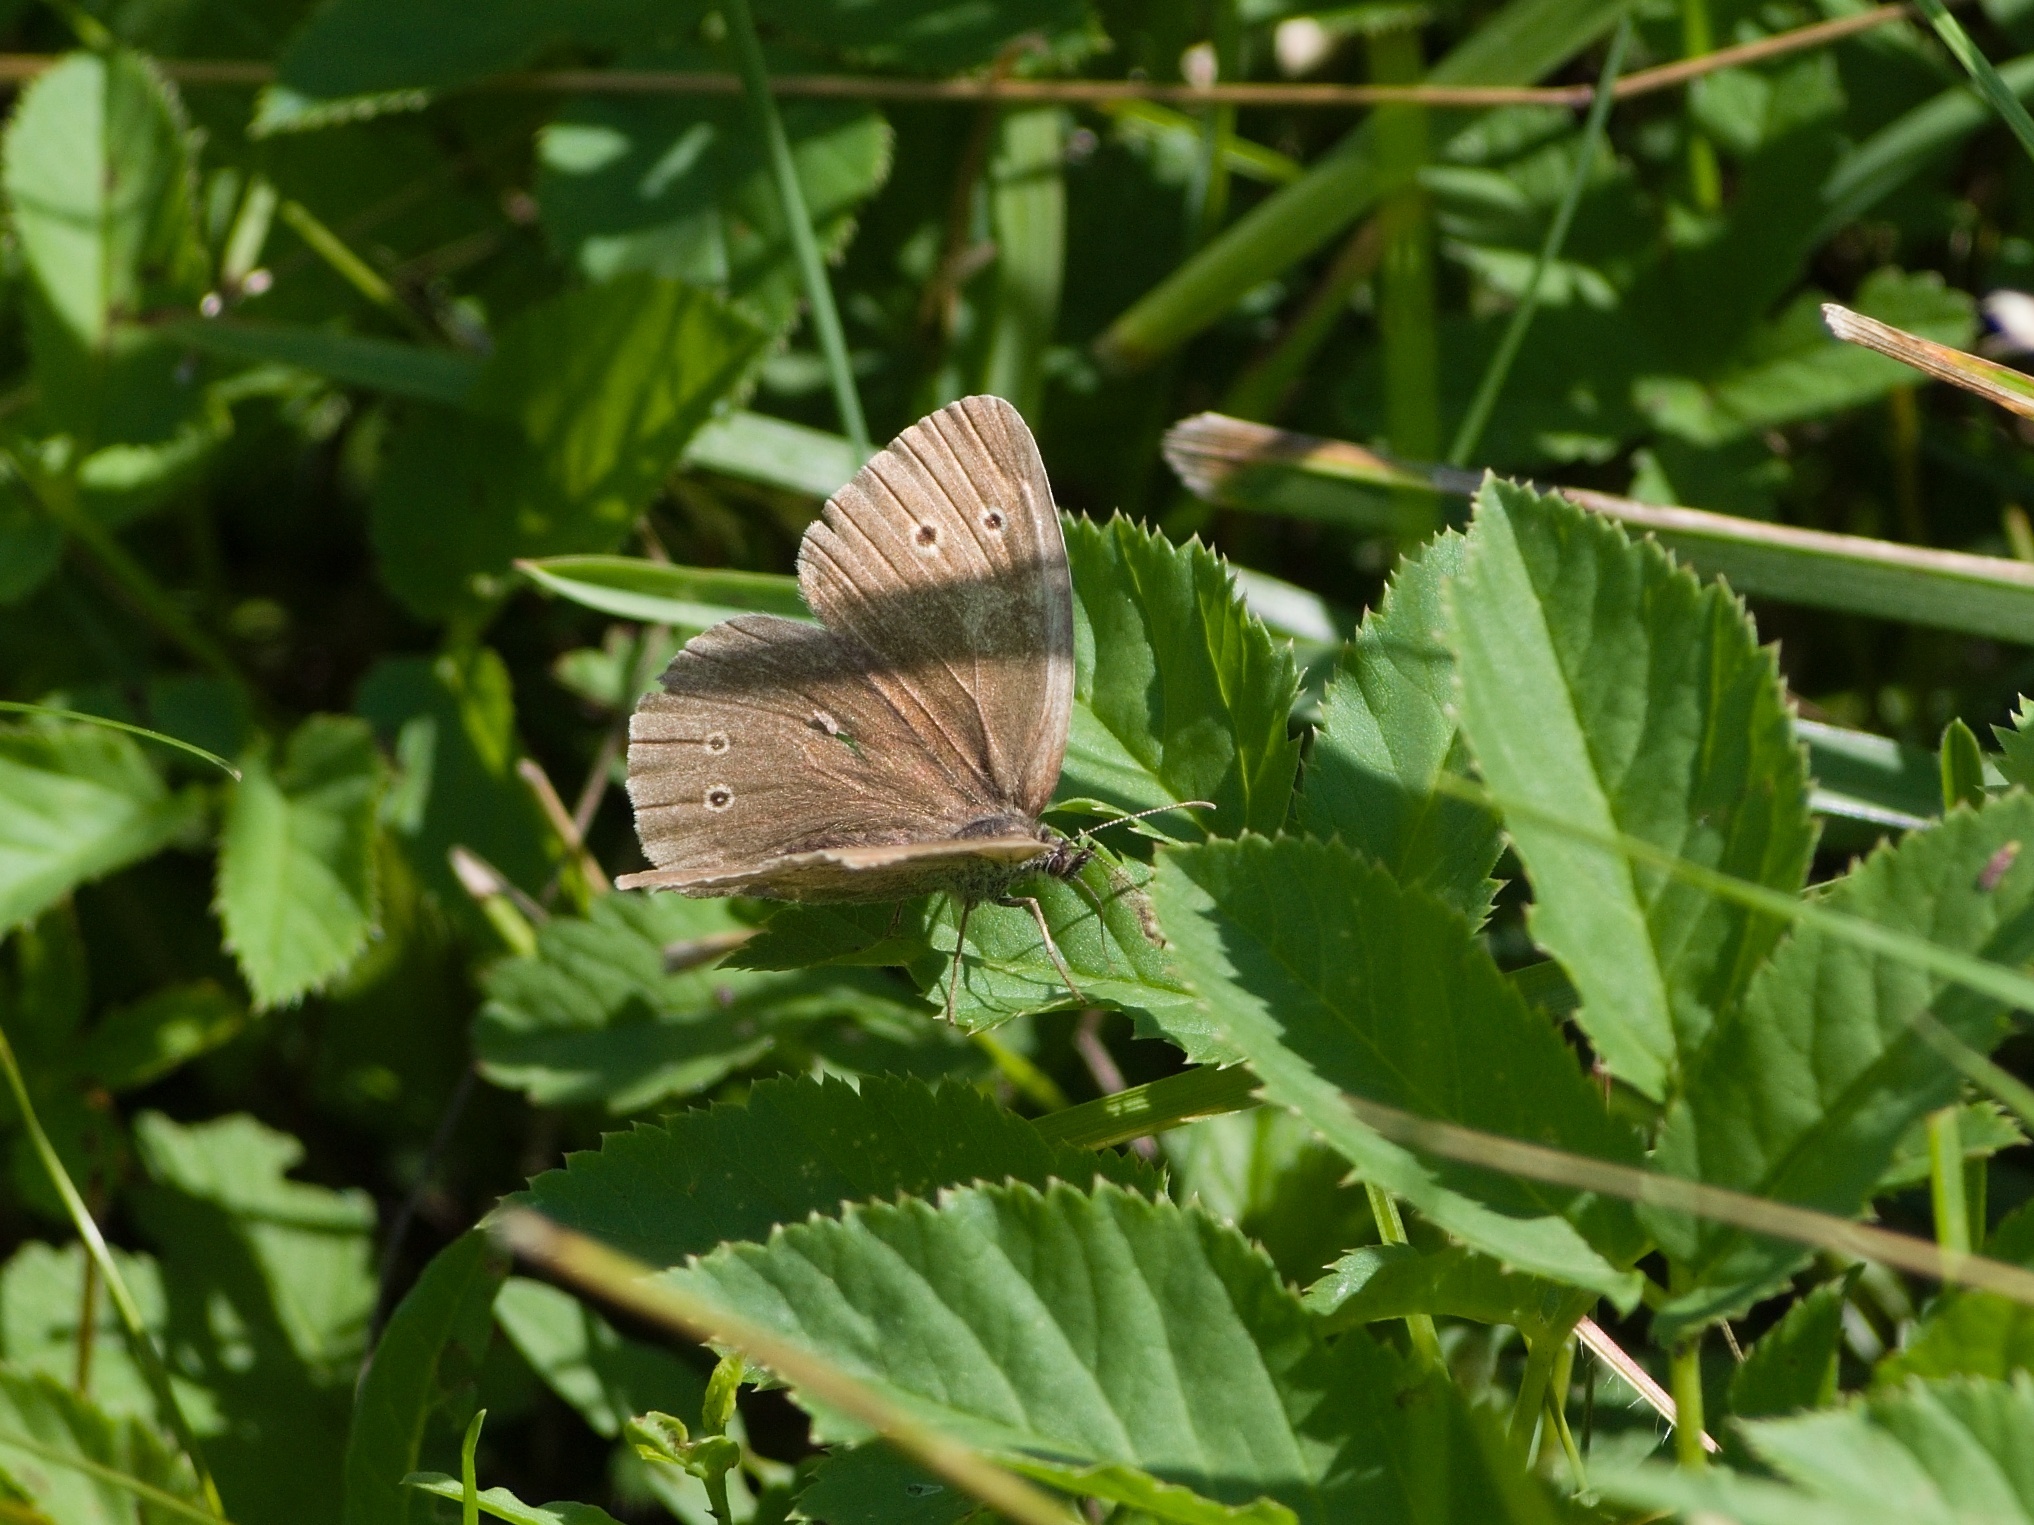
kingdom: Animalia
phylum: Arthropoda
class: Insecta
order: Lepidoptera
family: Nymphalidae
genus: Aphantopus
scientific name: Aphantopus hyperantus
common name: Ringlet
